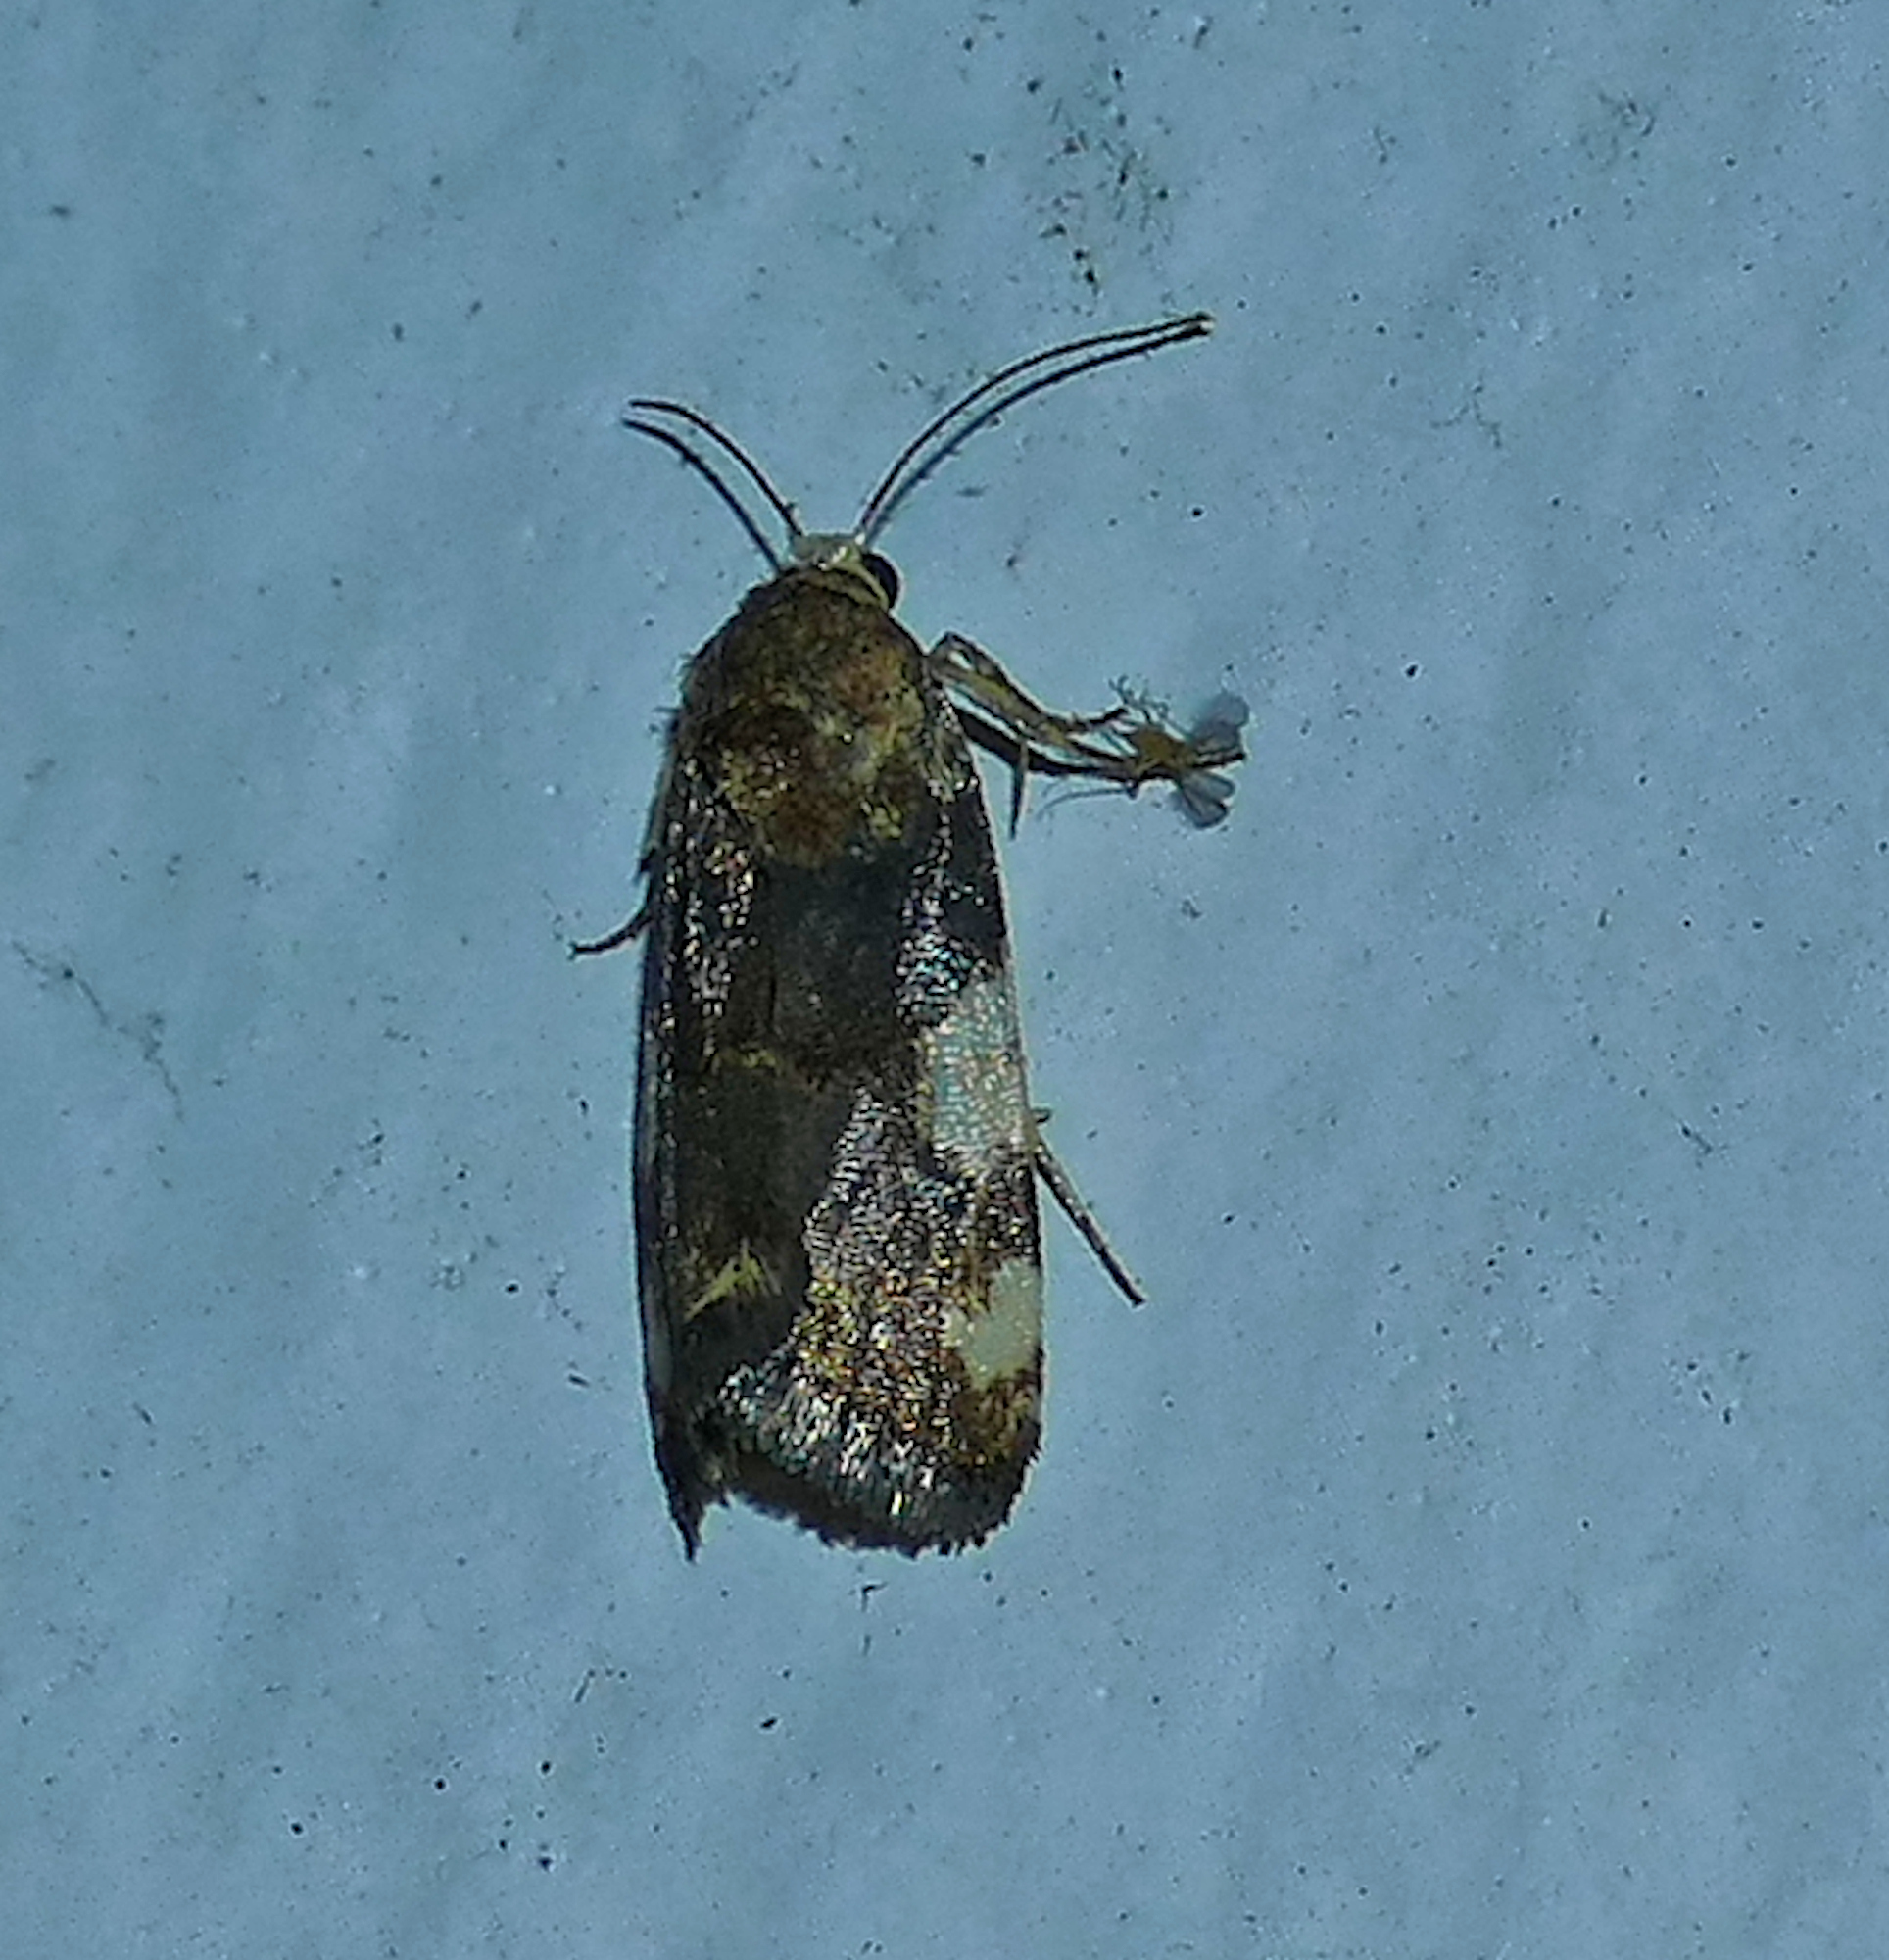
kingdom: Animalia
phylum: Arthropoda
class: Insecta
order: Lepidoptera
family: Noctuidae
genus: Acontia
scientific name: Acontia obatra
